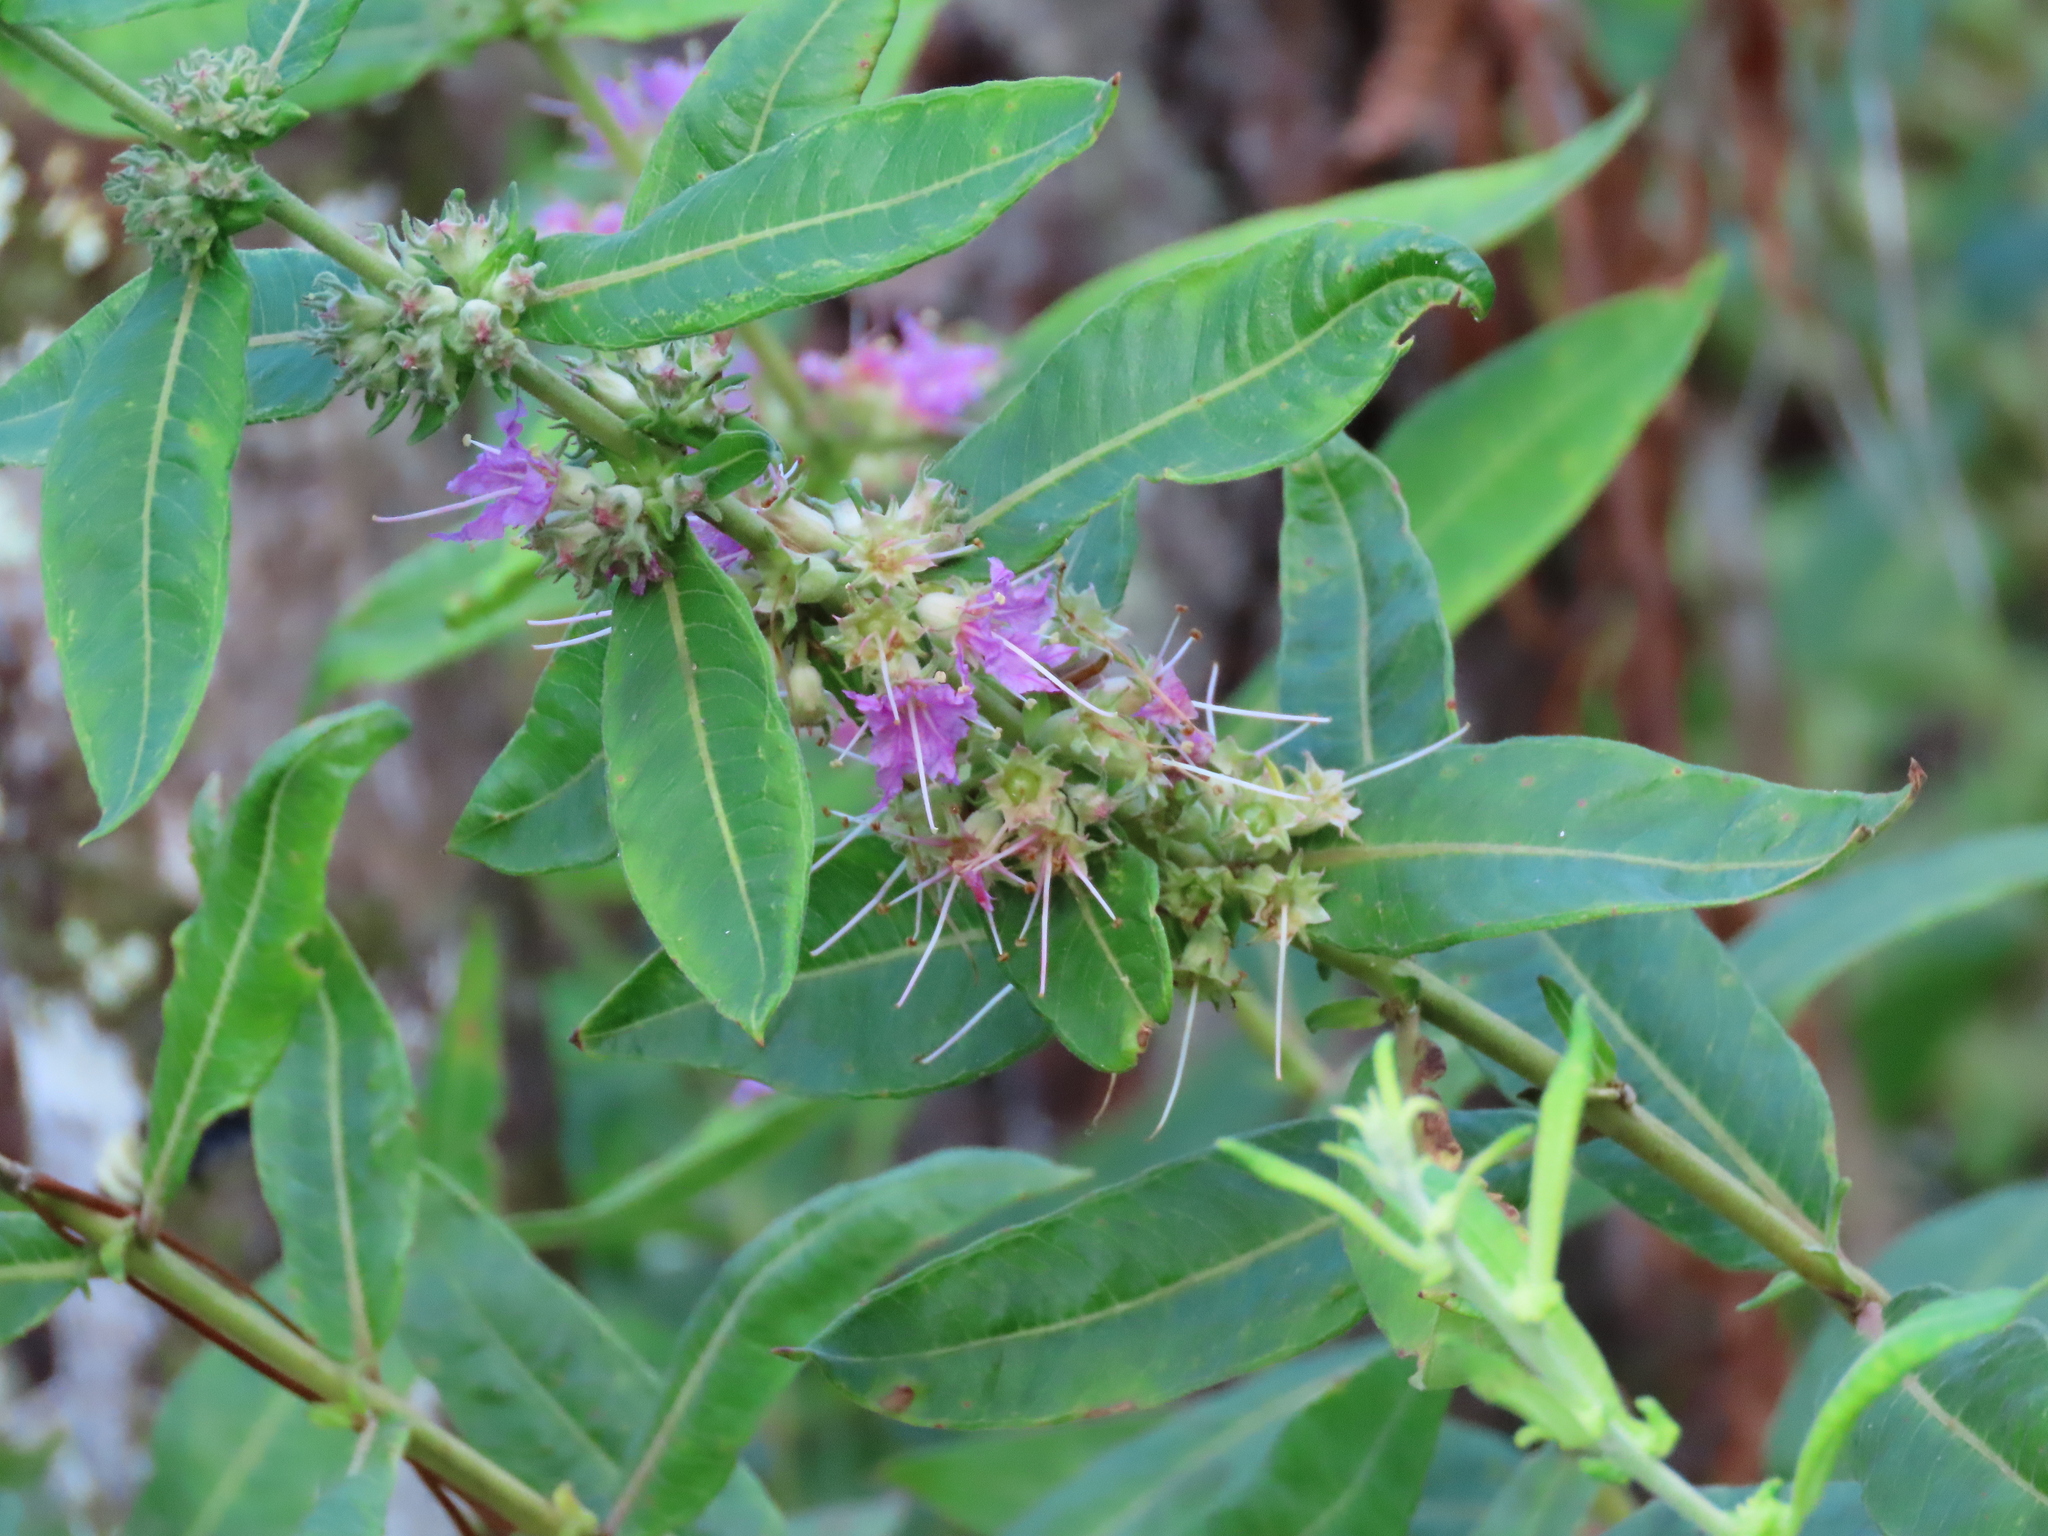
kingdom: Plantae
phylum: Tracheophyta
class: Magnoliopsida
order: Myrtales
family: Lythraceae
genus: Decodon
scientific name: Decodon verticillatus
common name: Hairy swamp loosestrife
